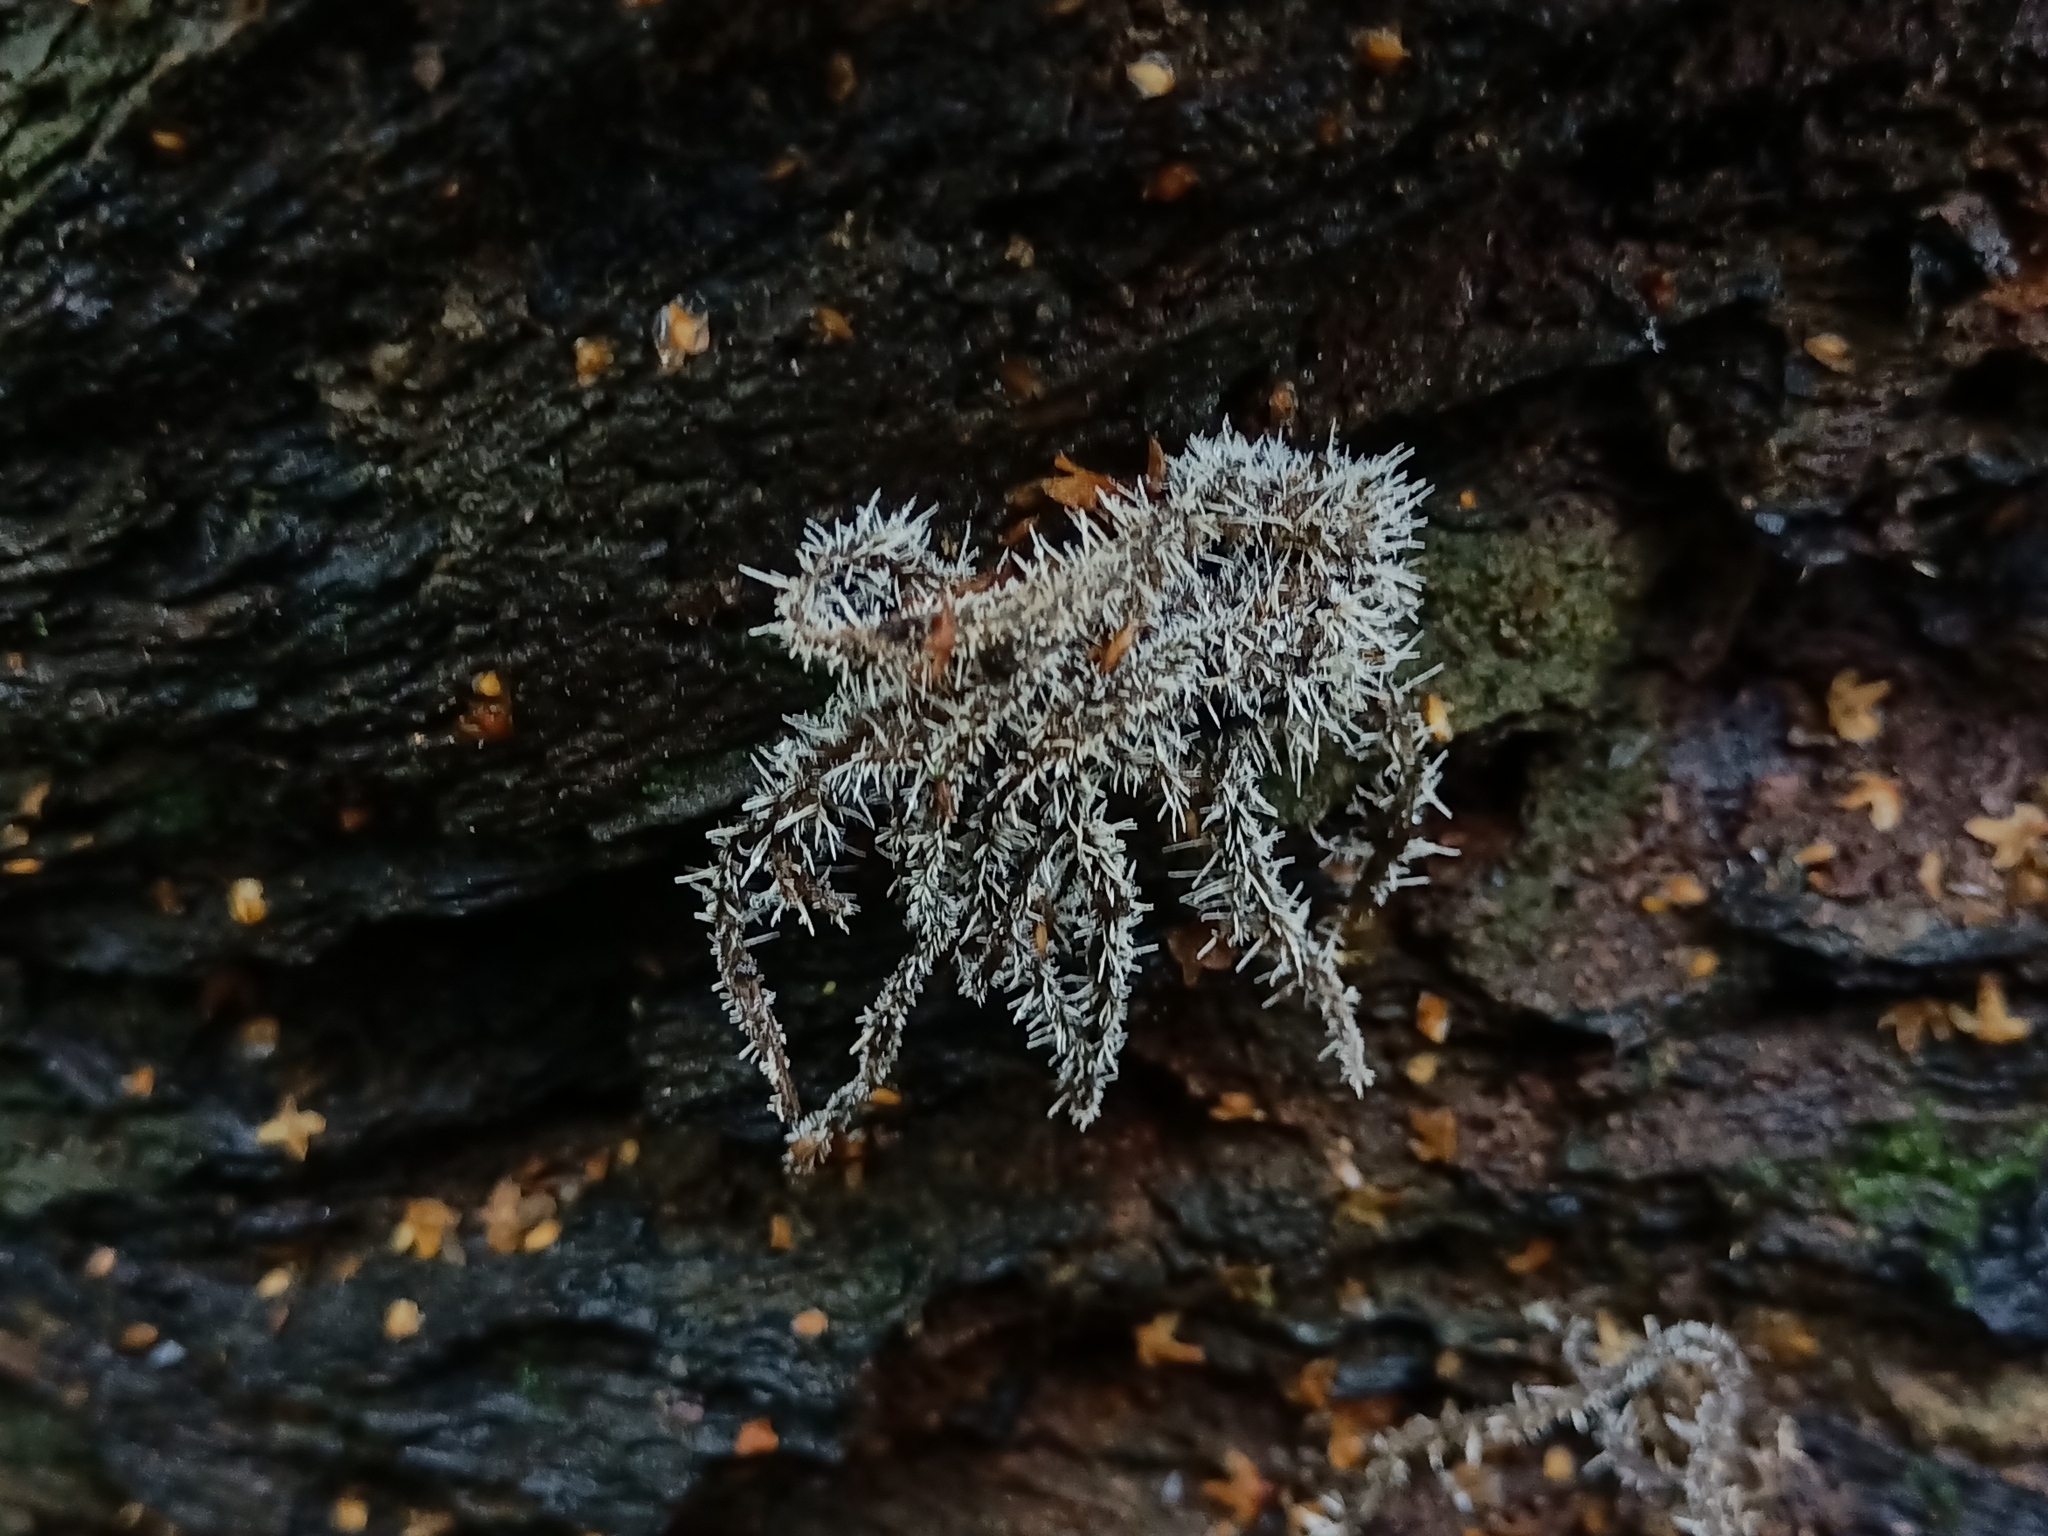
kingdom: Fungi
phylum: Ascomycota
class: Sordariomycetes
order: Hypocreales
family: Tilachlidiaceae
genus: Tilachlidium
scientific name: Tilachlidium brachiatum
